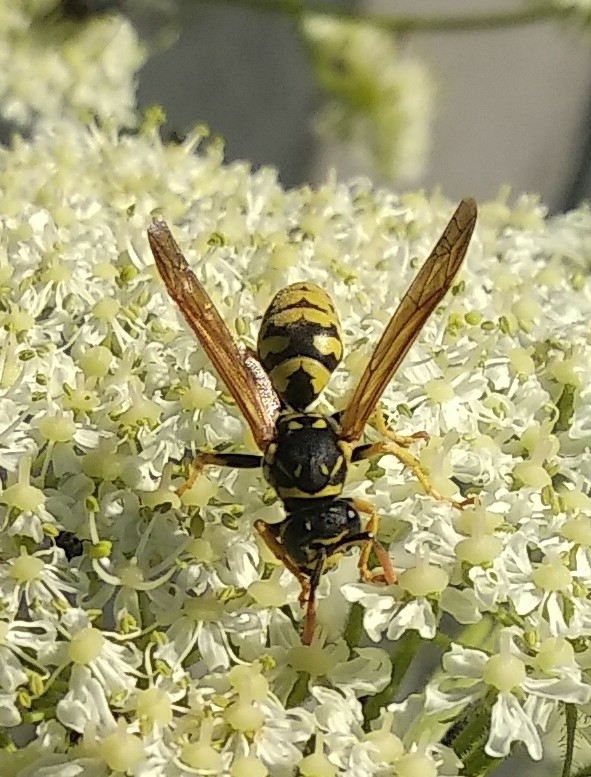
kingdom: Animalia
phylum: Arthropoda
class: Insecta
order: Hymenoptera
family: Eumenidae
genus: Polistes
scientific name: Polistes dominula
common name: Paper wasp
